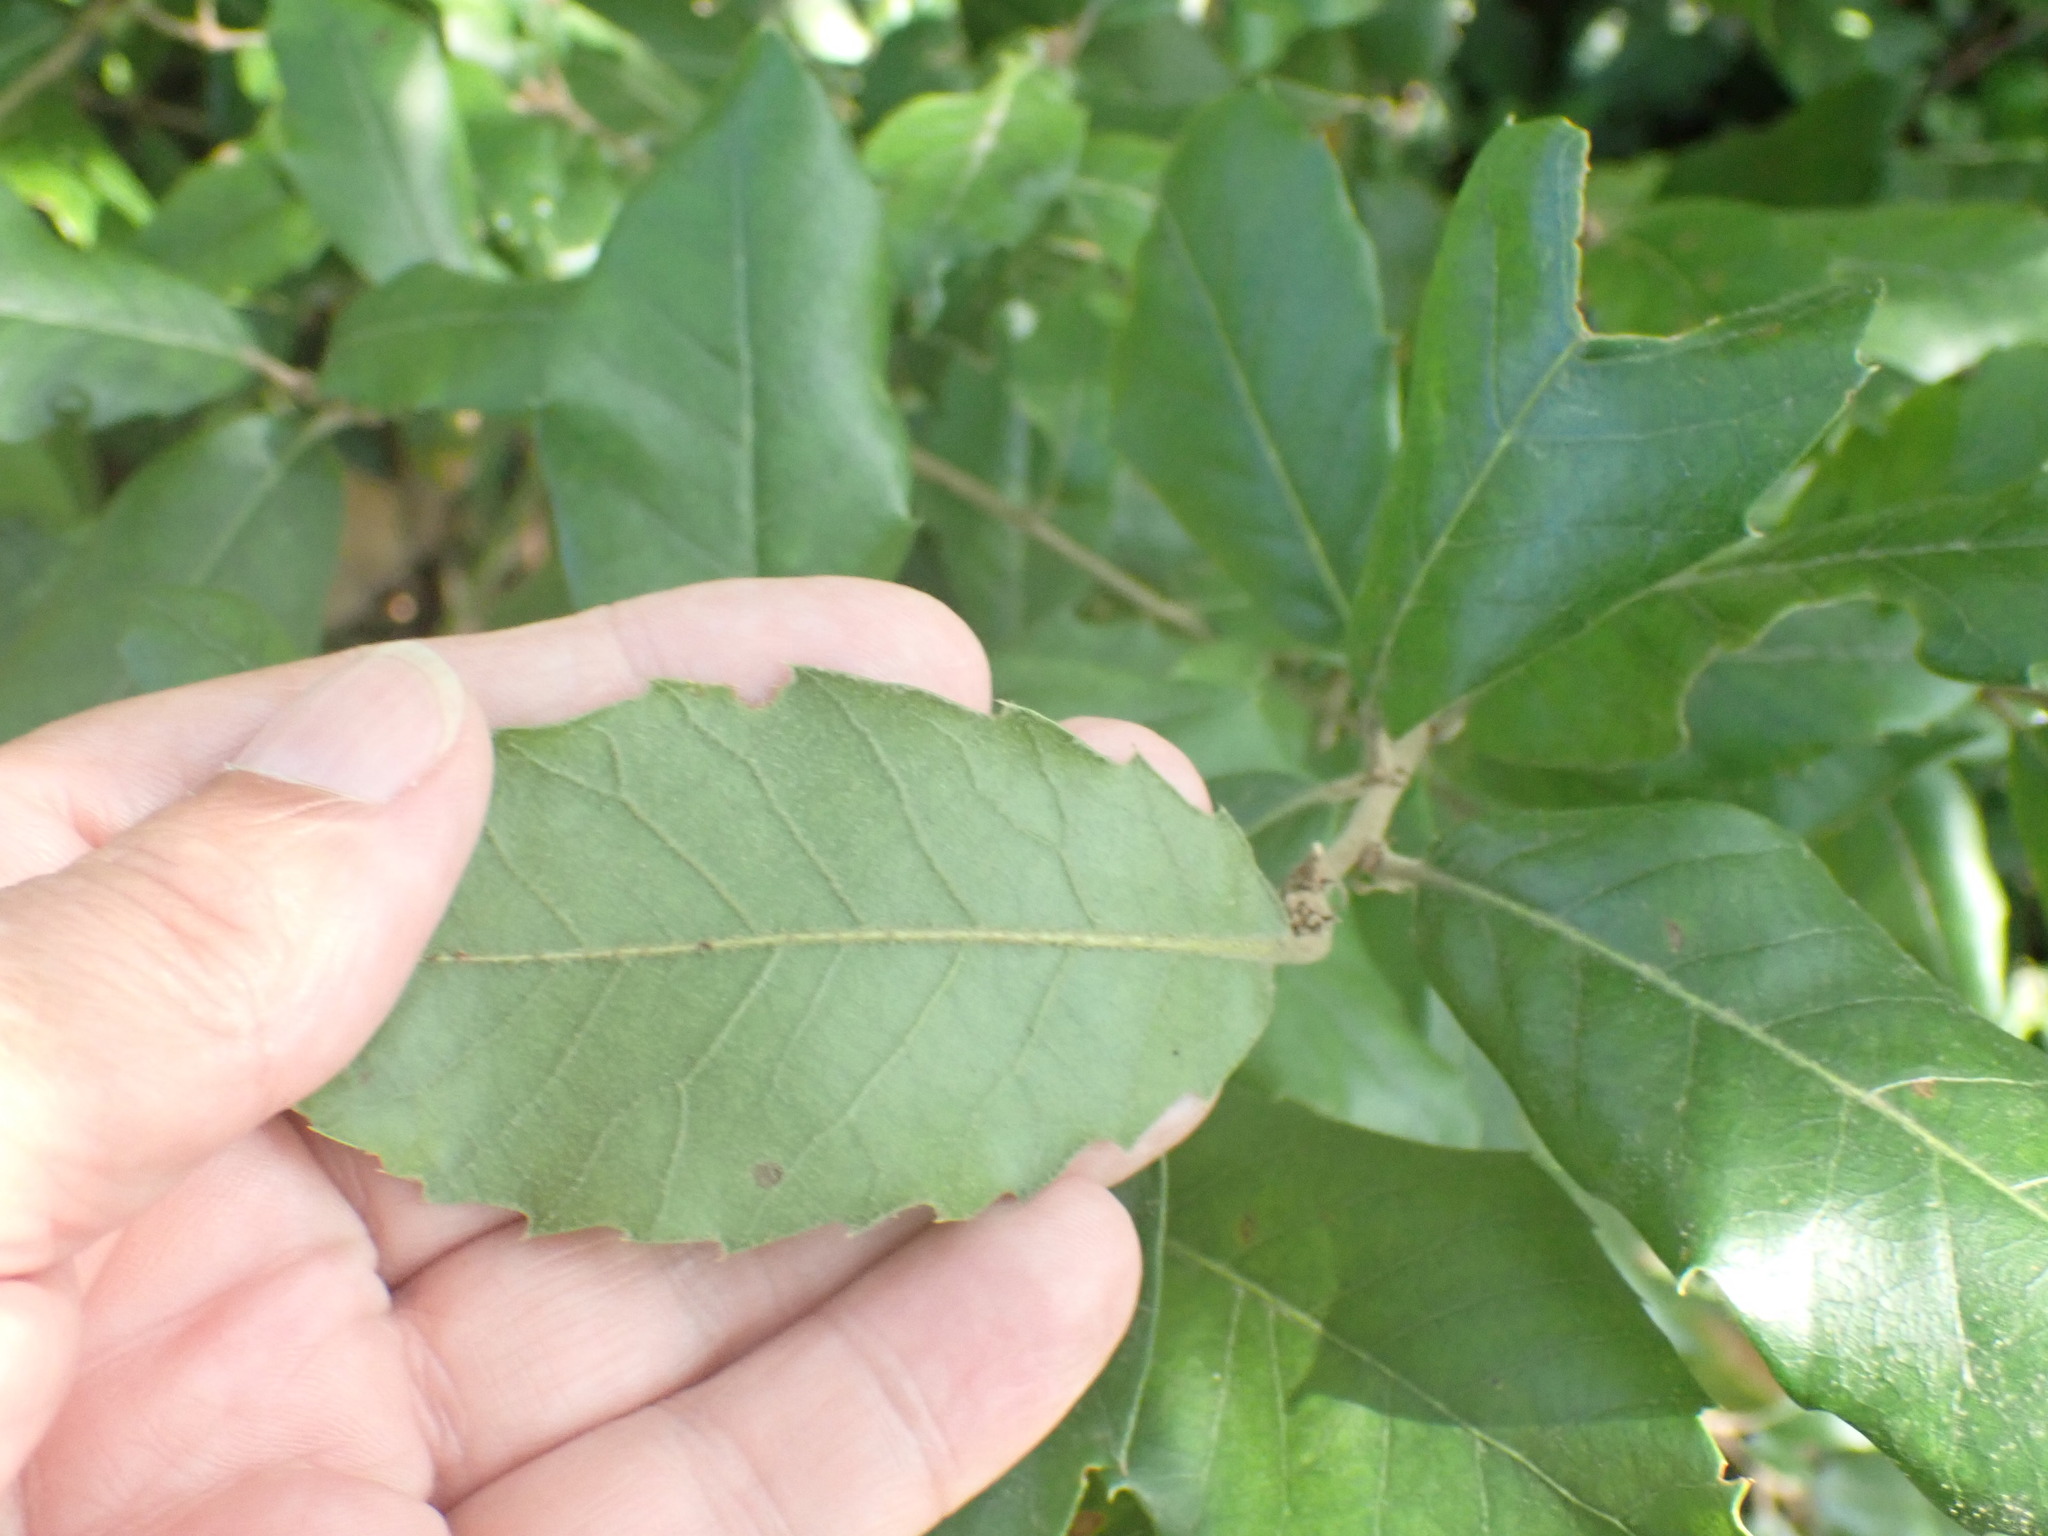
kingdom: Plantae
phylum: Tracheophyta
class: Magnoliopsida
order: Fagales
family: Fagaceae
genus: Quercus
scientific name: Quercus ilex
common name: Evergreen oak
